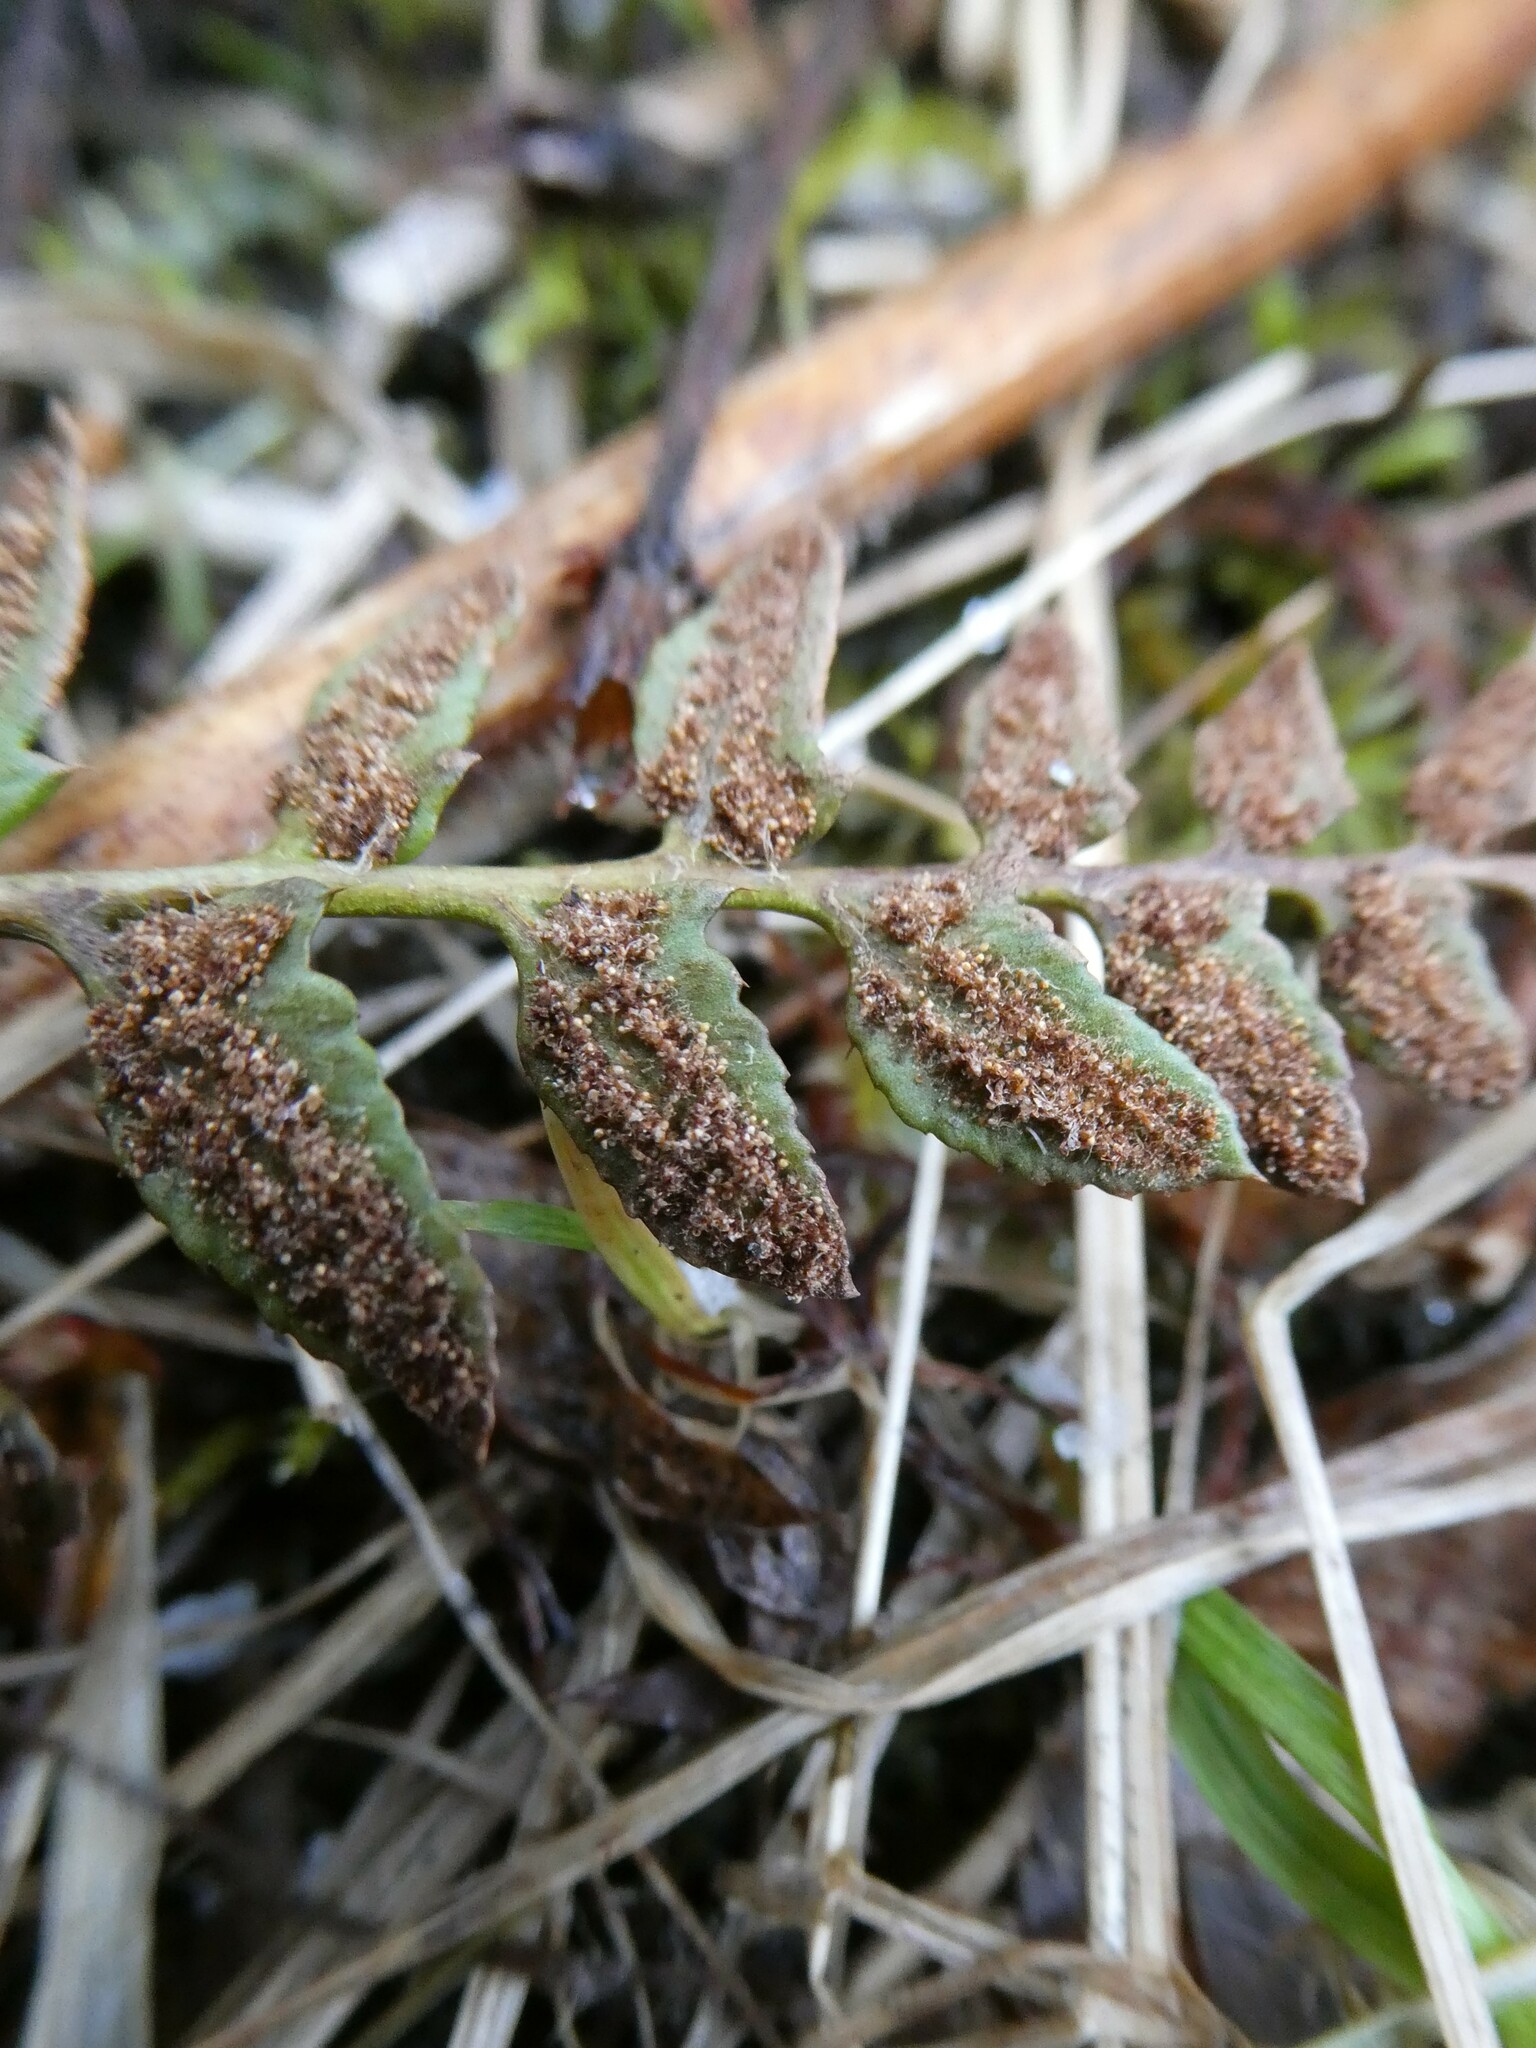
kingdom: Plantae
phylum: Tracheophyta
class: Polypodiopsida
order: Polypodiales
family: Dryopteridaceae
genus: Polystichum
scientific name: Polystichum acrostichoides
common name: Christmas fern
